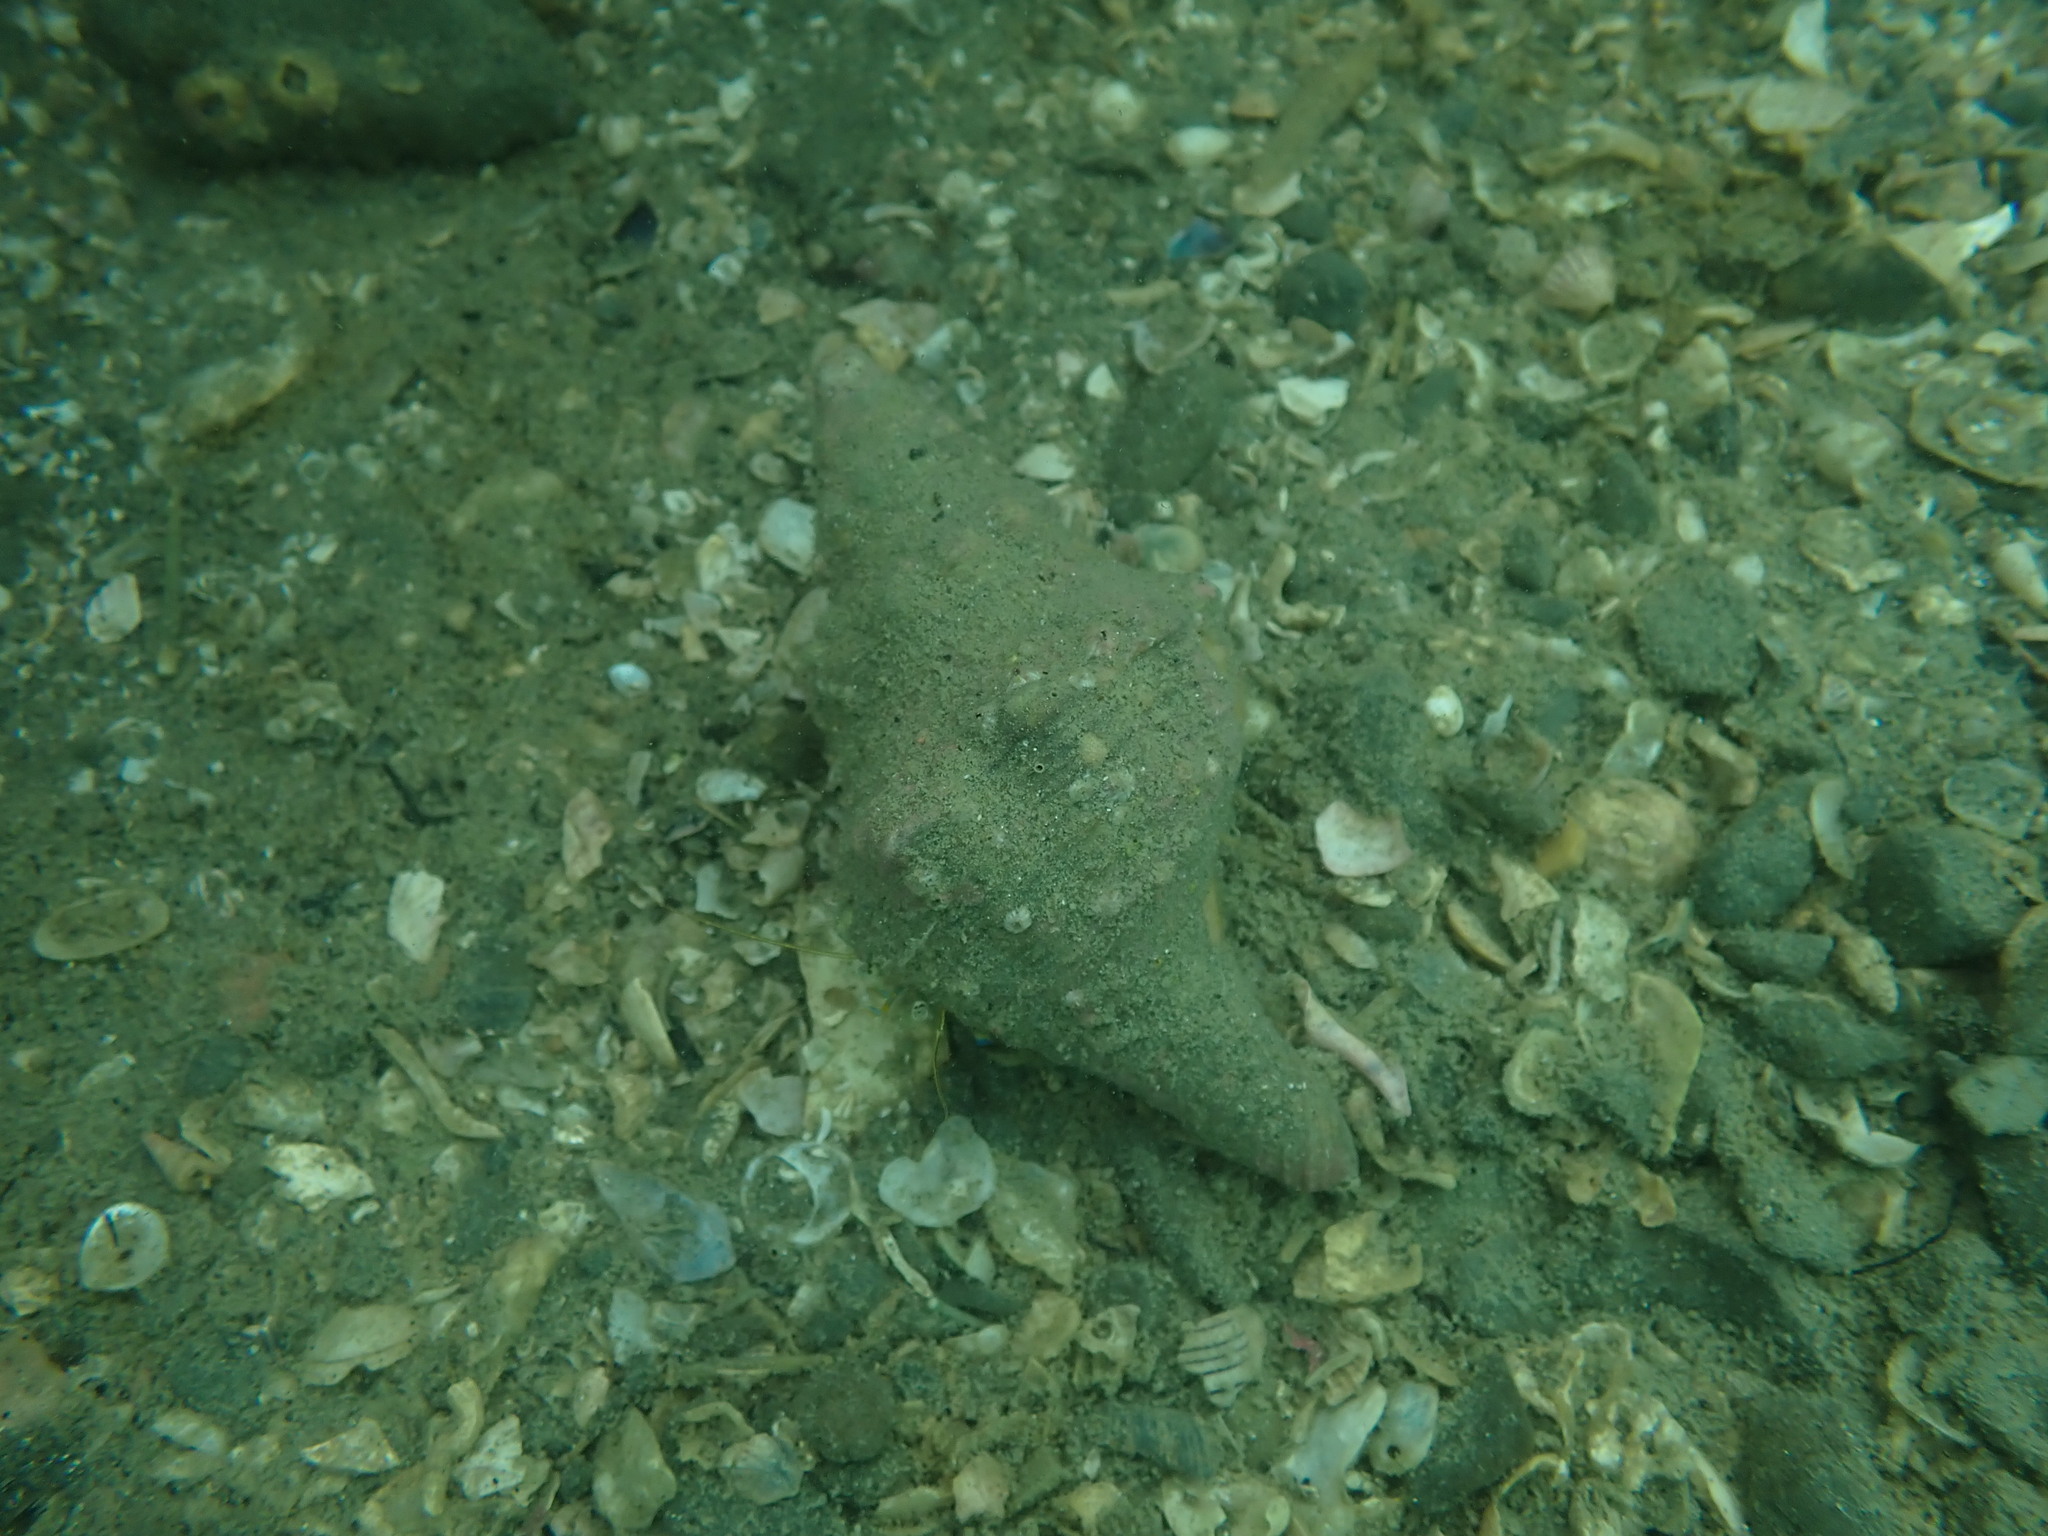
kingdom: Animalia
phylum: Mollusca
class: Gastropoda
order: Neogastropoda
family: Austrosiphonidae
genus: Penion
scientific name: Penion sulcatus
